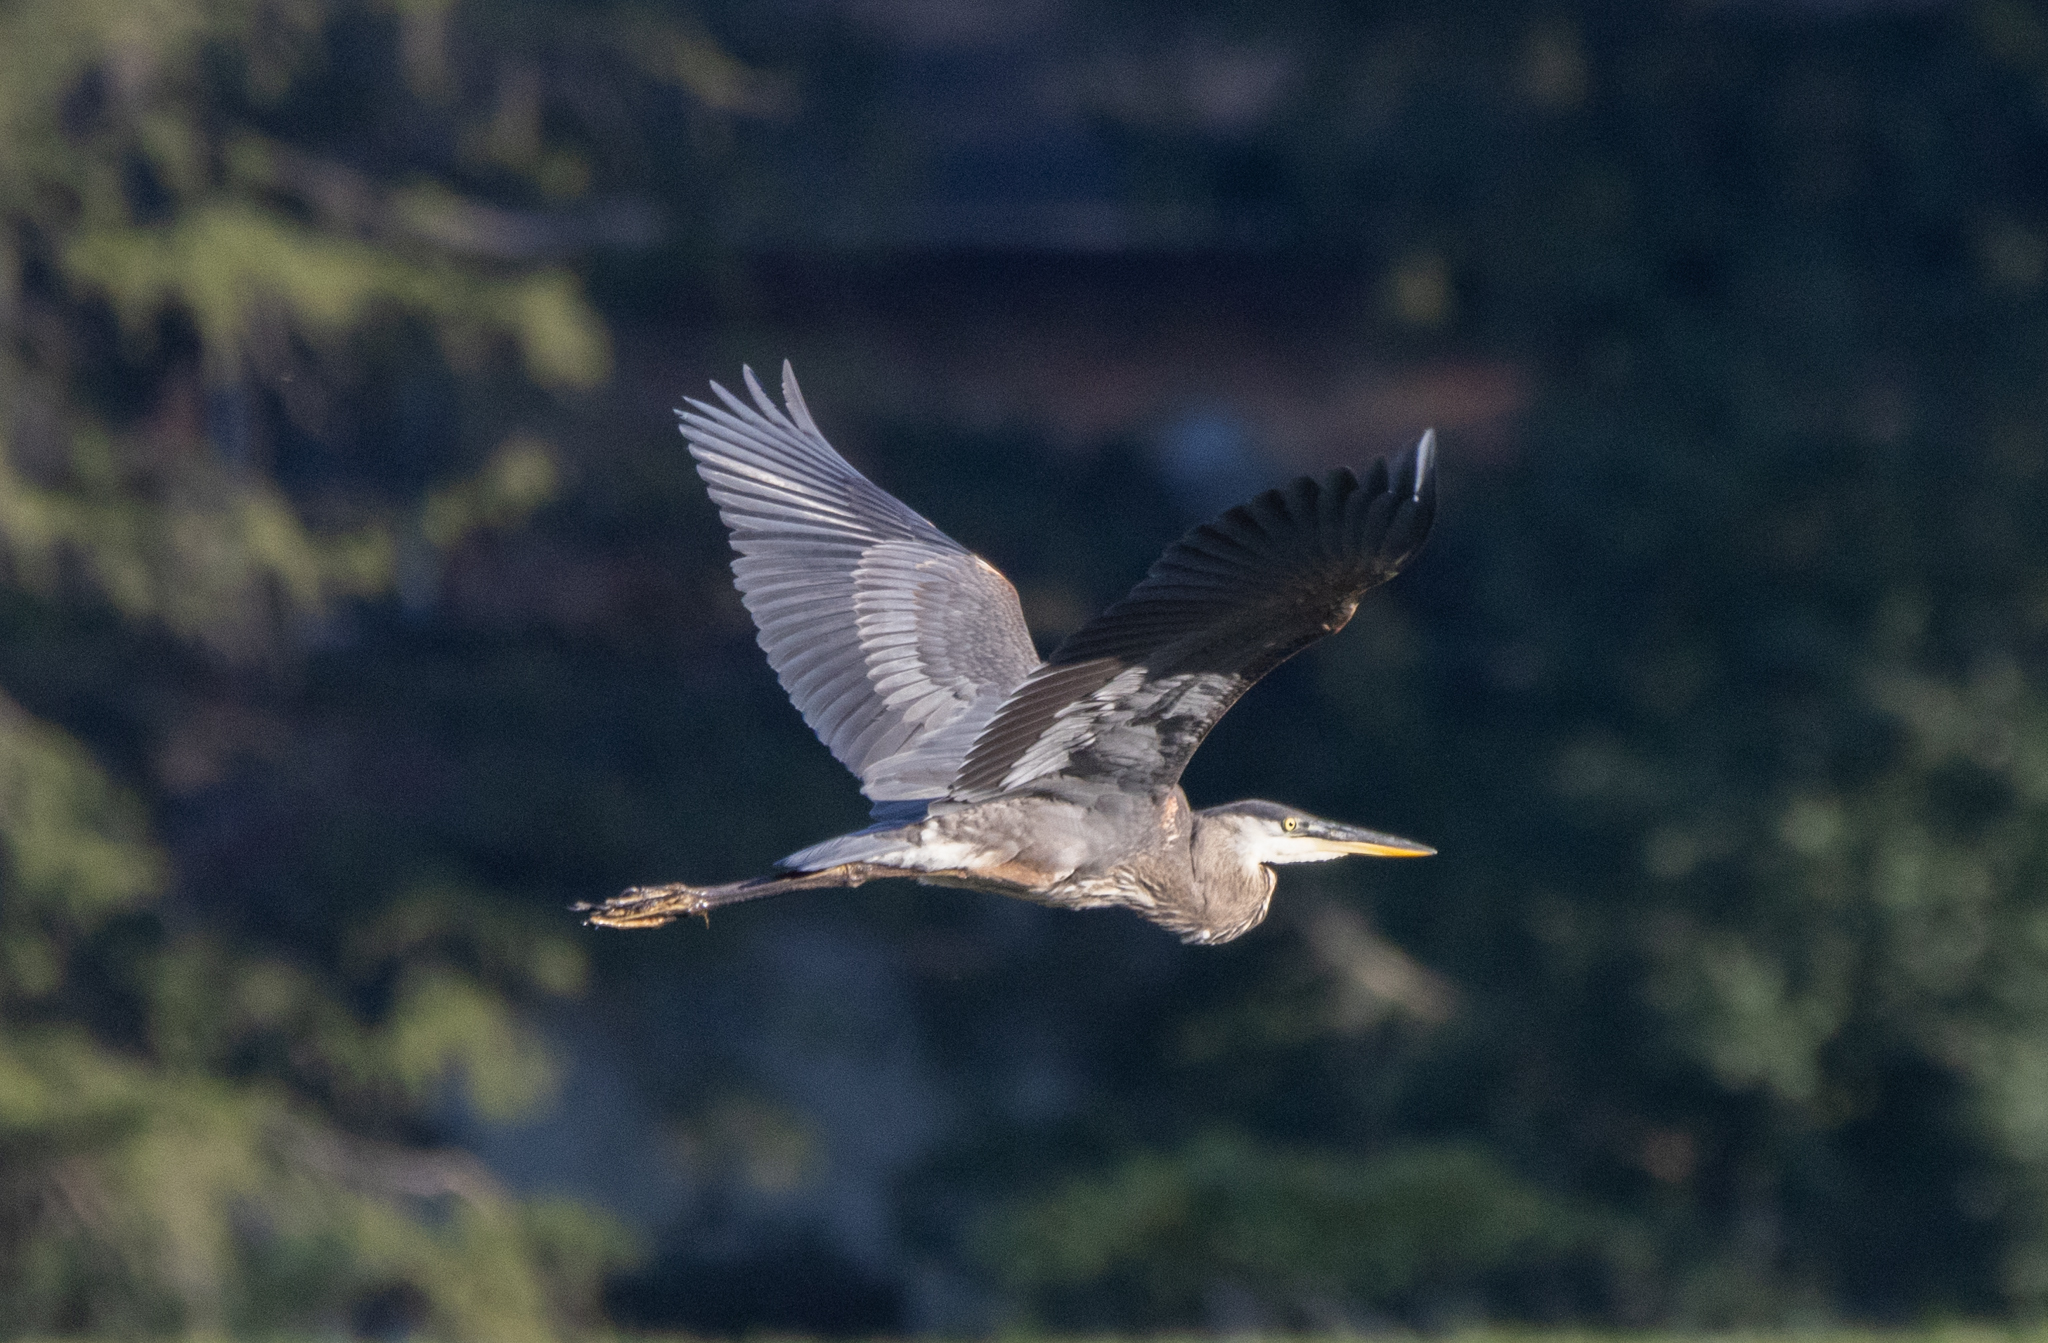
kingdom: Animalia
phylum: Chordata
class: Aves
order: Pelecaniformes
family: Ardeidae
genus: Ardea
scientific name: Ardea herodias
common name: Great blue heron
